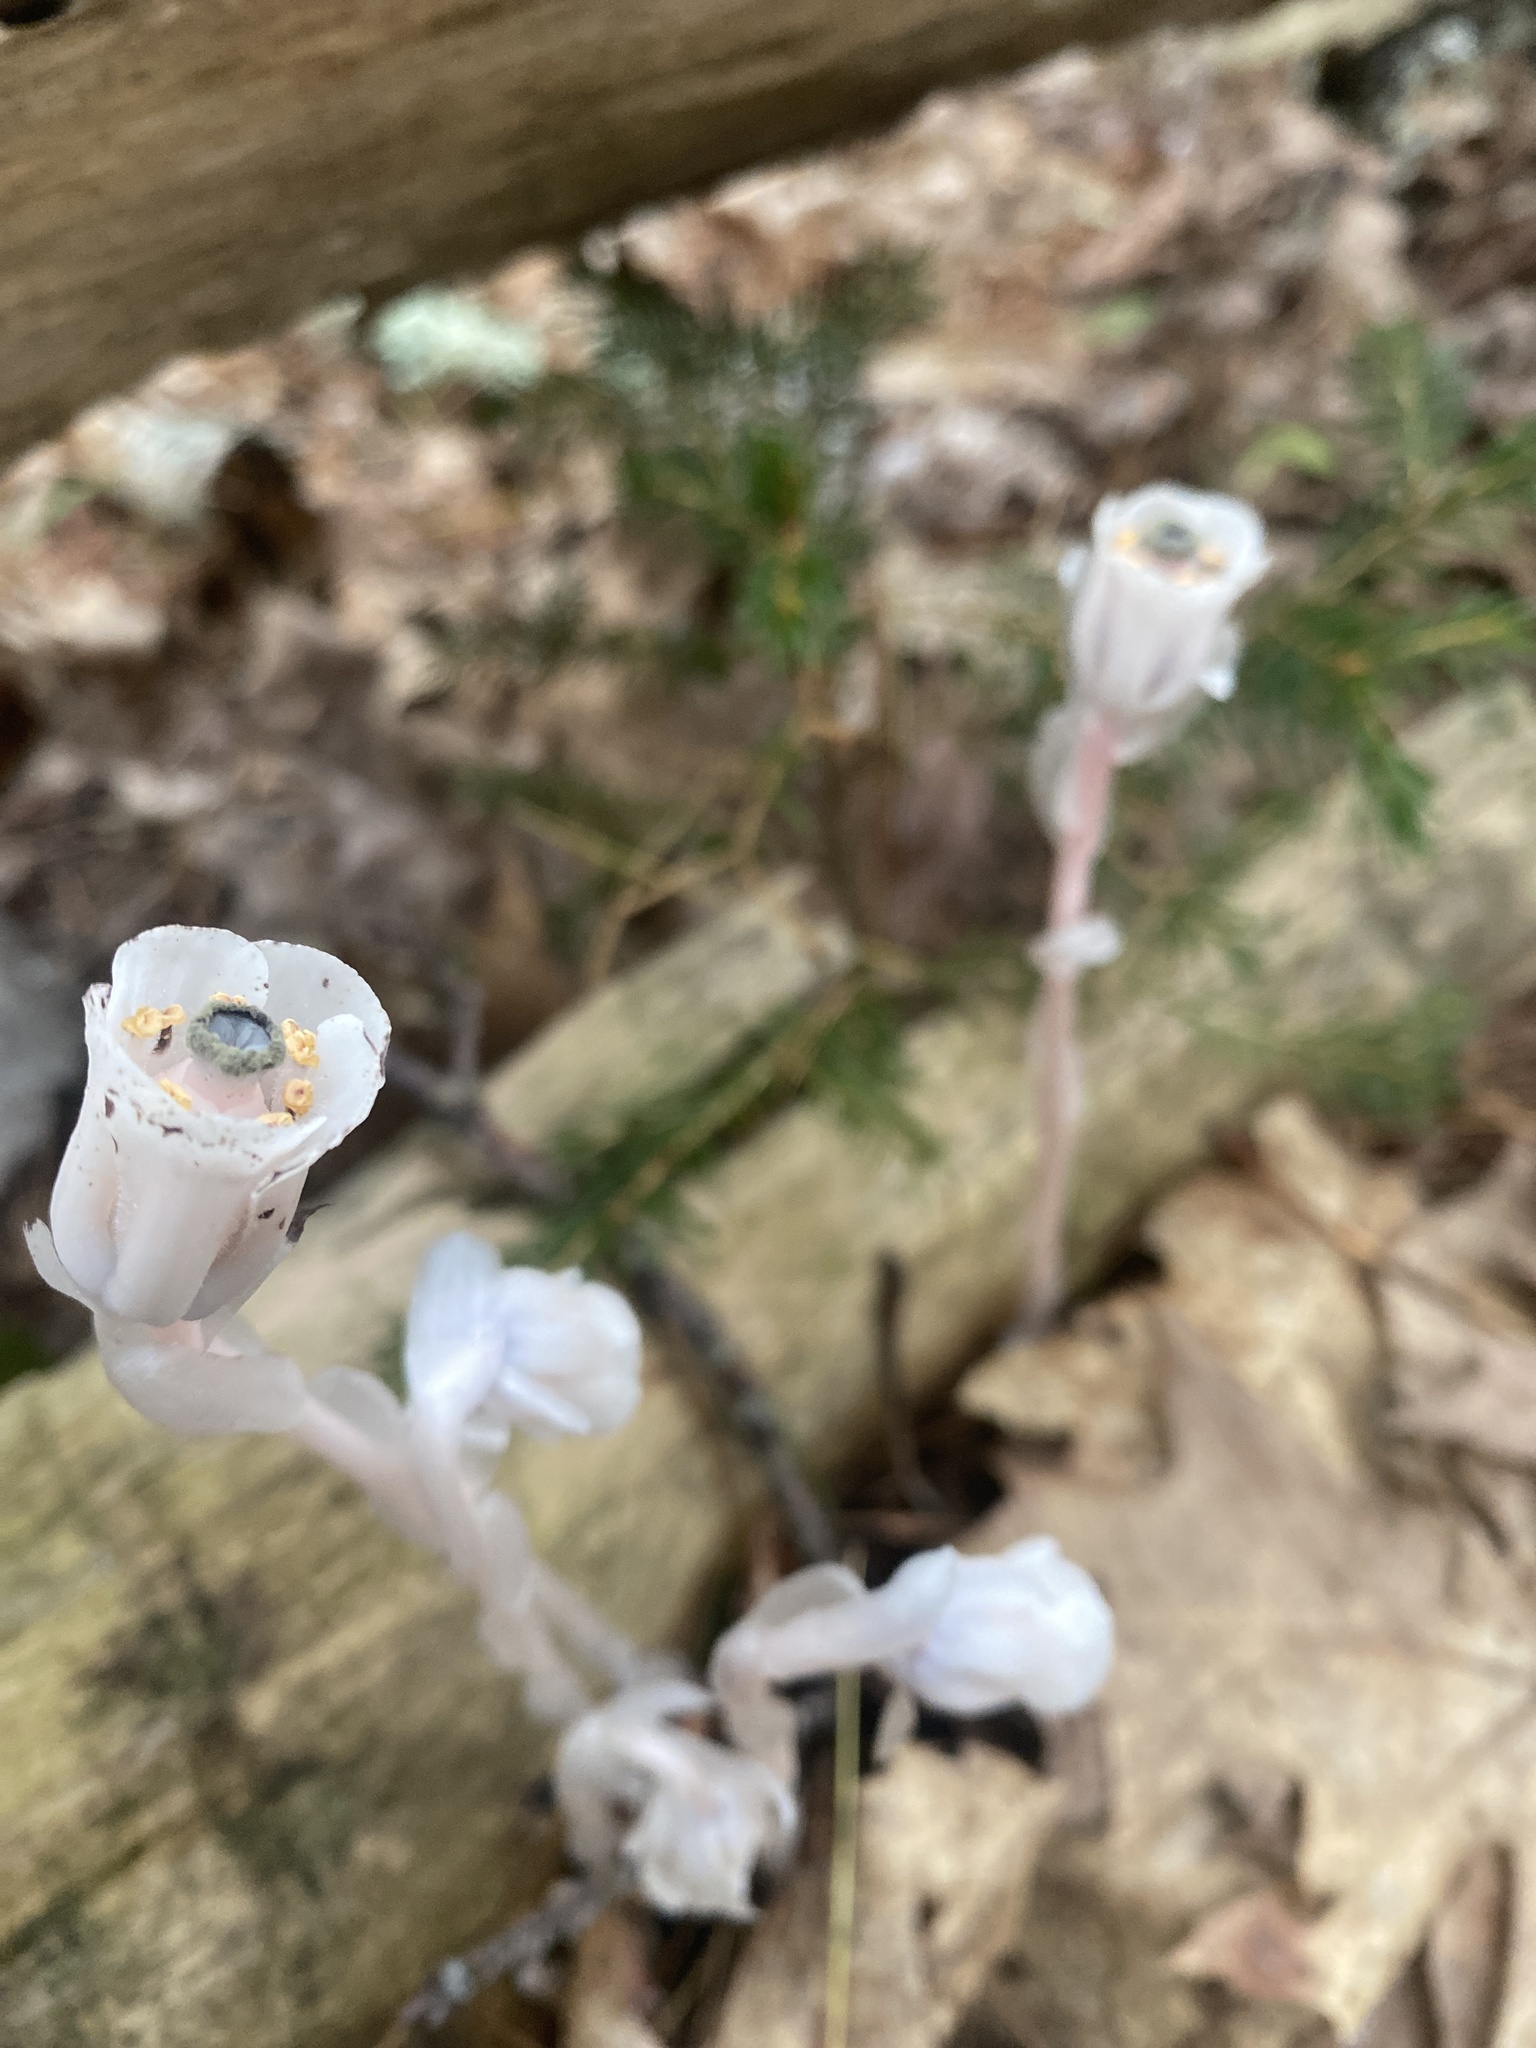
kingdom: Plantae
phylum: Tracheophyta
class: Magnoliopsida
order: Ericales
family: Ericaceae
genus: Monotropa
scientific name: Monotropa uniflora
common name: Convulsion root
